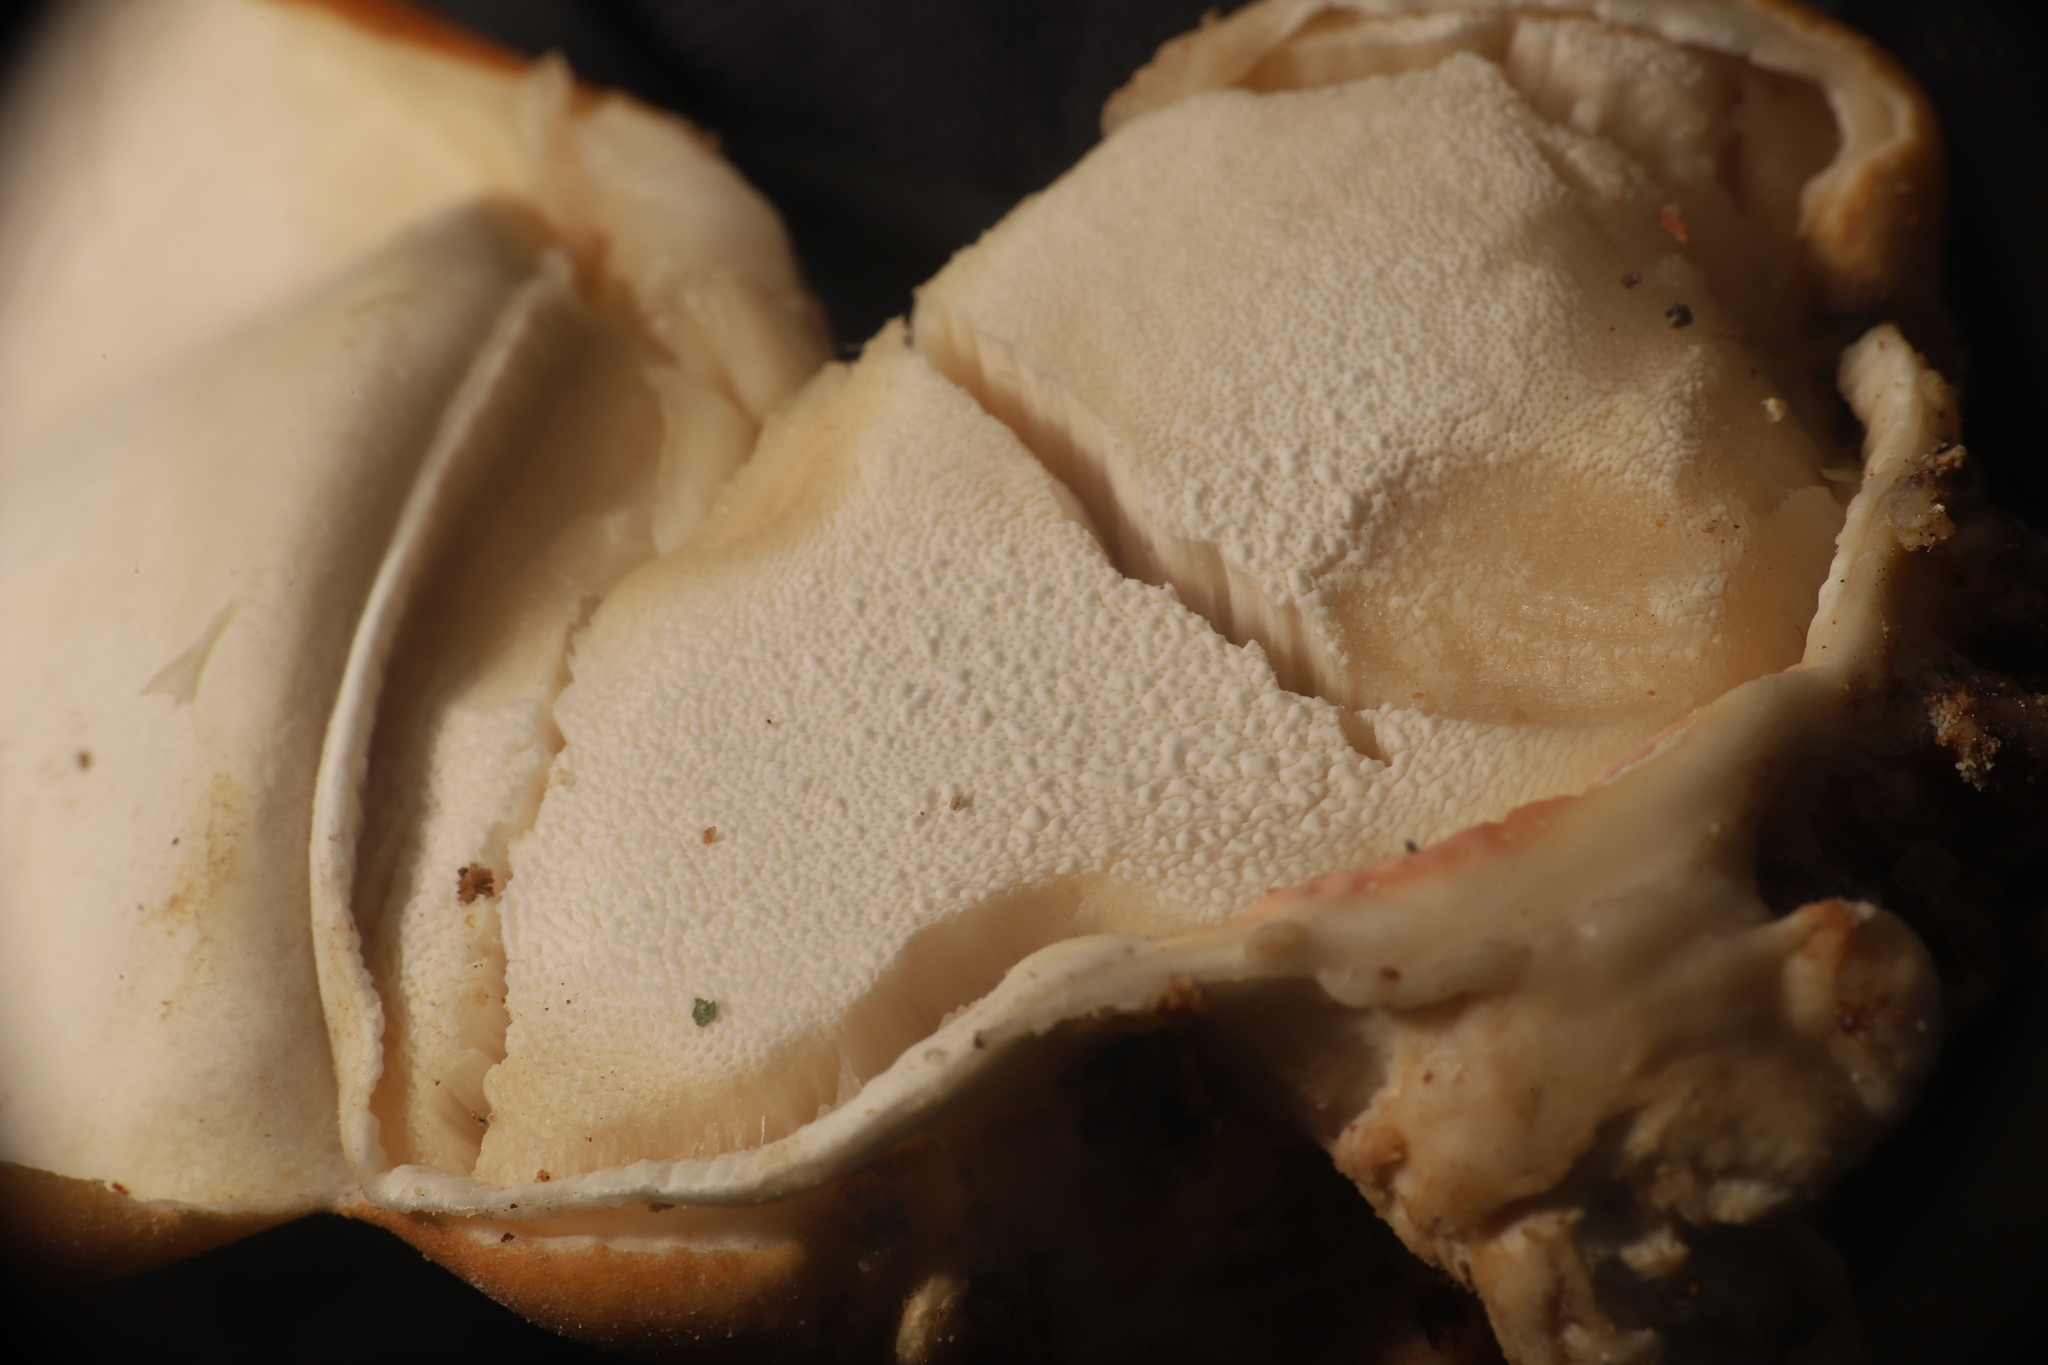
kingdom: Fungi
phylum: Basidiomycota
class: Agaricomycetes
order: Polyporales
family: Polyporaceae
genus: Cryptoporus
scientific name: Cryptoporus volvatus
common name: Veiled polypore
